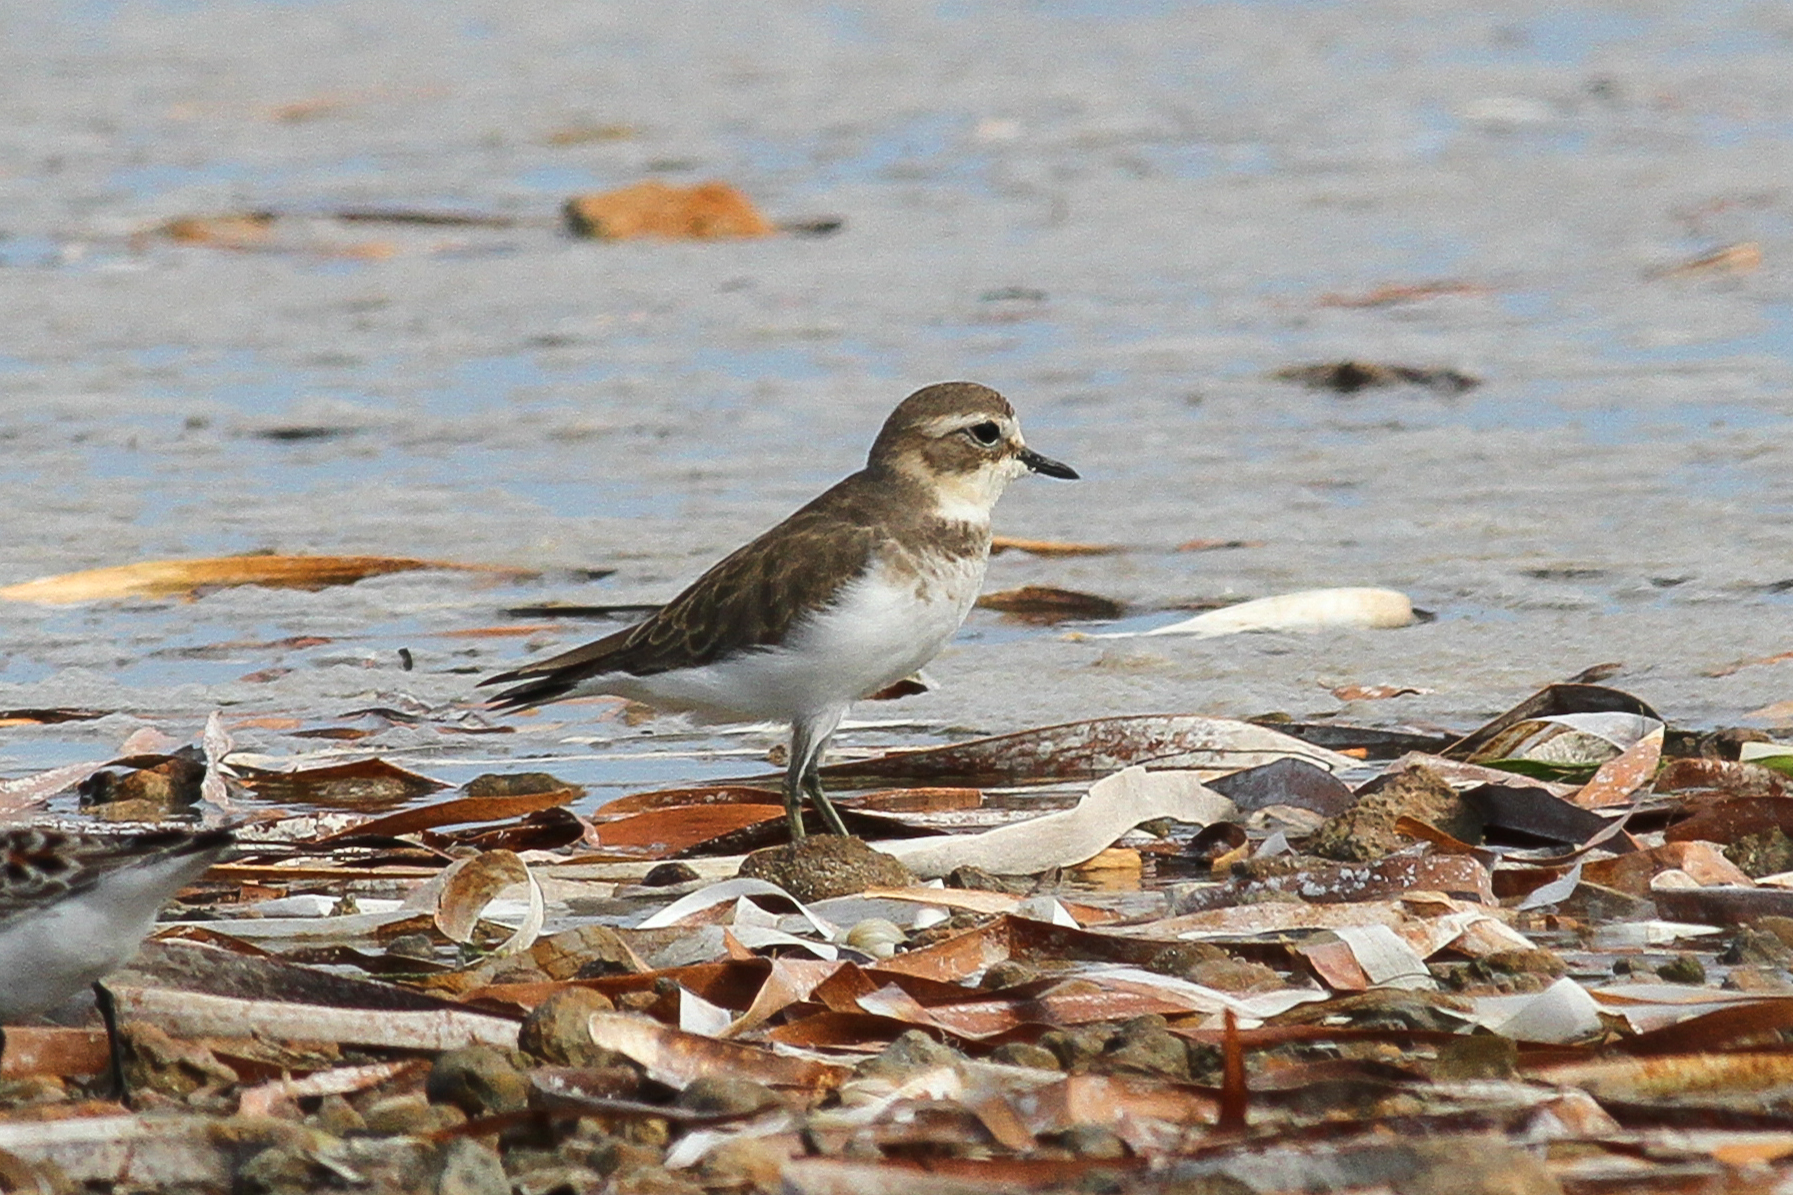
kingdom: Animalia
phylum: Chordata
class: Aves
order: Charadriiformes
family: Charadriidae
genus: Anarhynchus
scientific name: Anarhynchus
